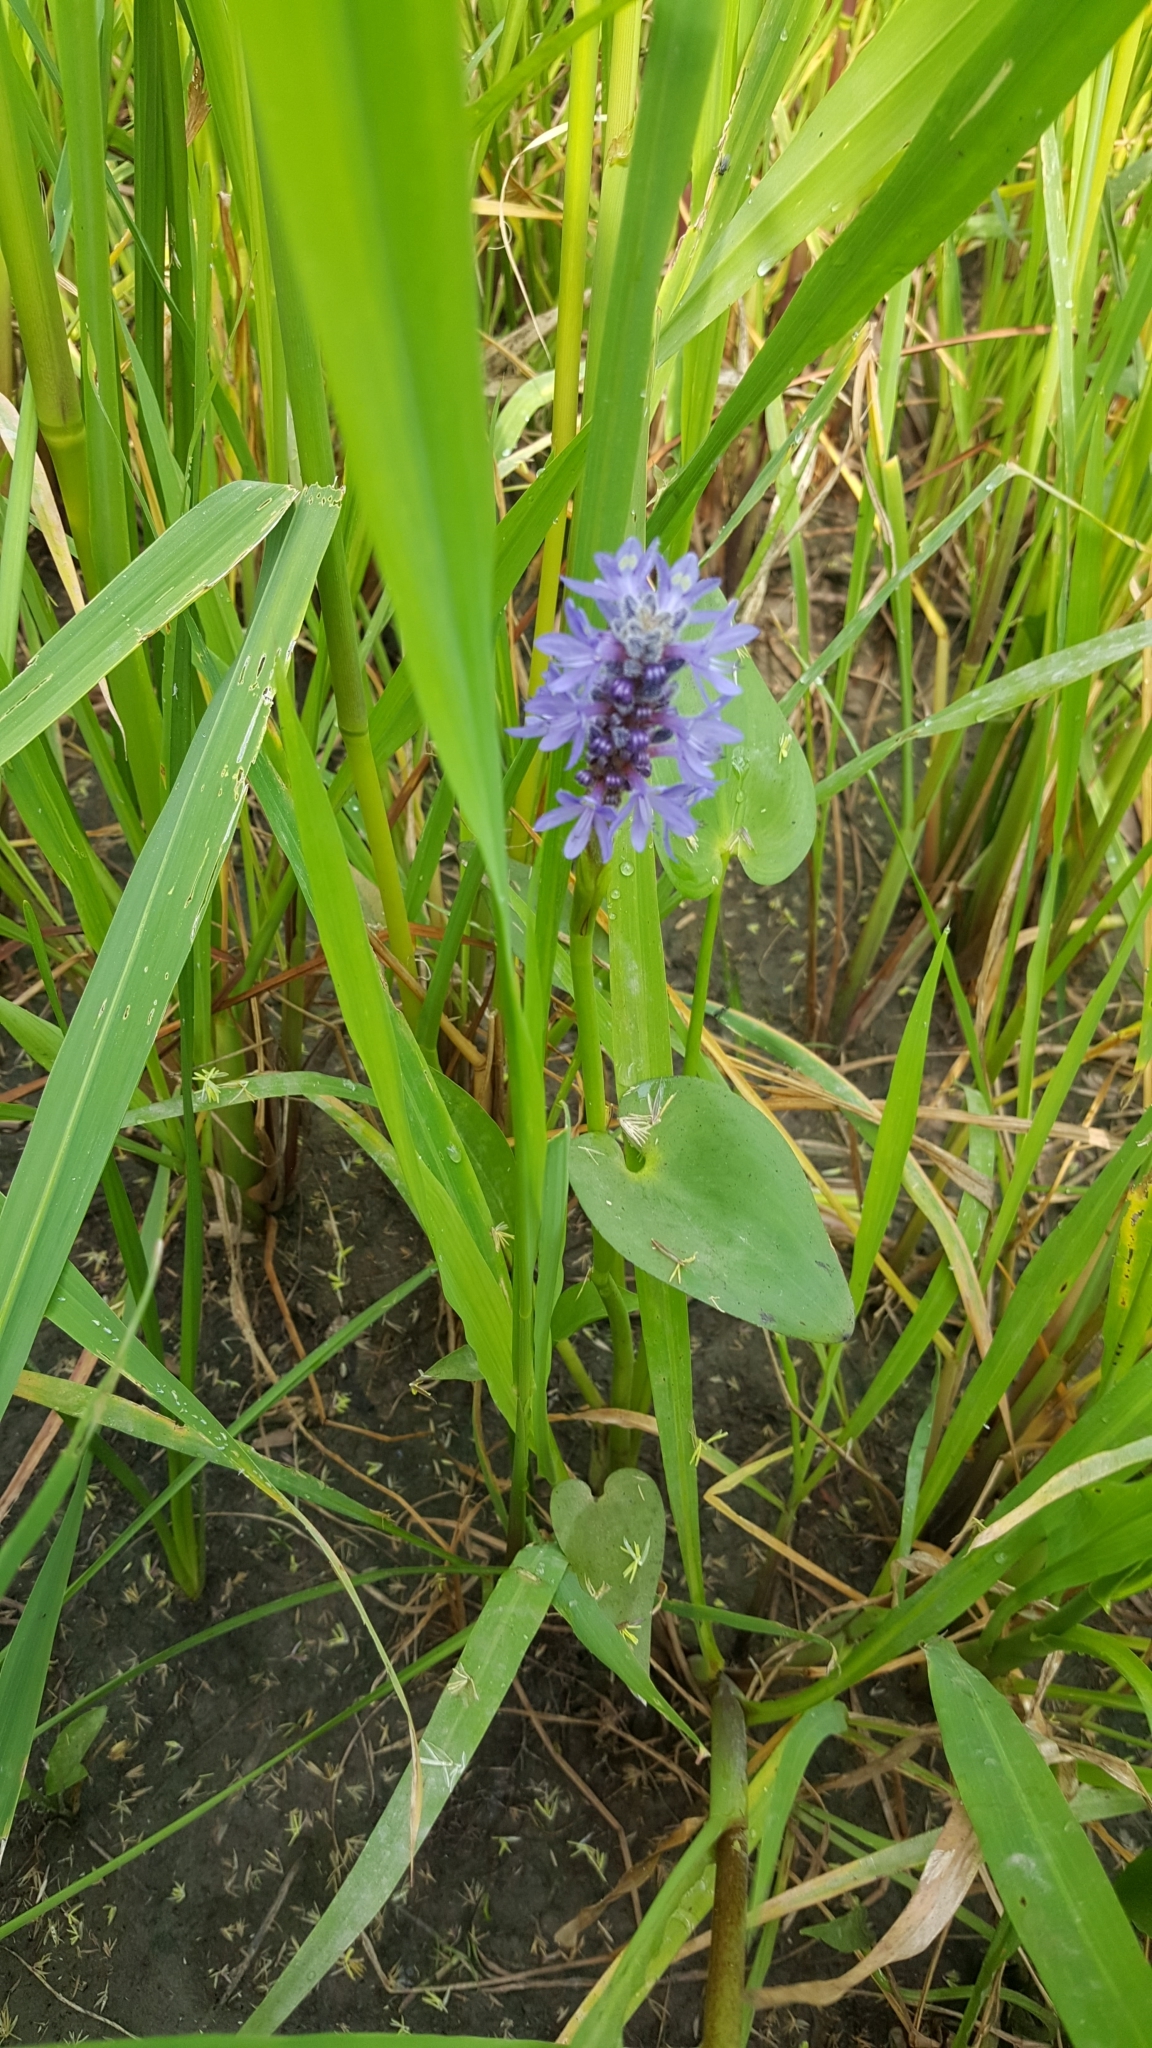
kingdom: Plantae
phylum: Tracheophyta
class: Liliopsida
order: Commelinales
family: Pontederiaceae
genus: Pontederia
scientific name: Pontederia cordata
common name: Pickerelweed
